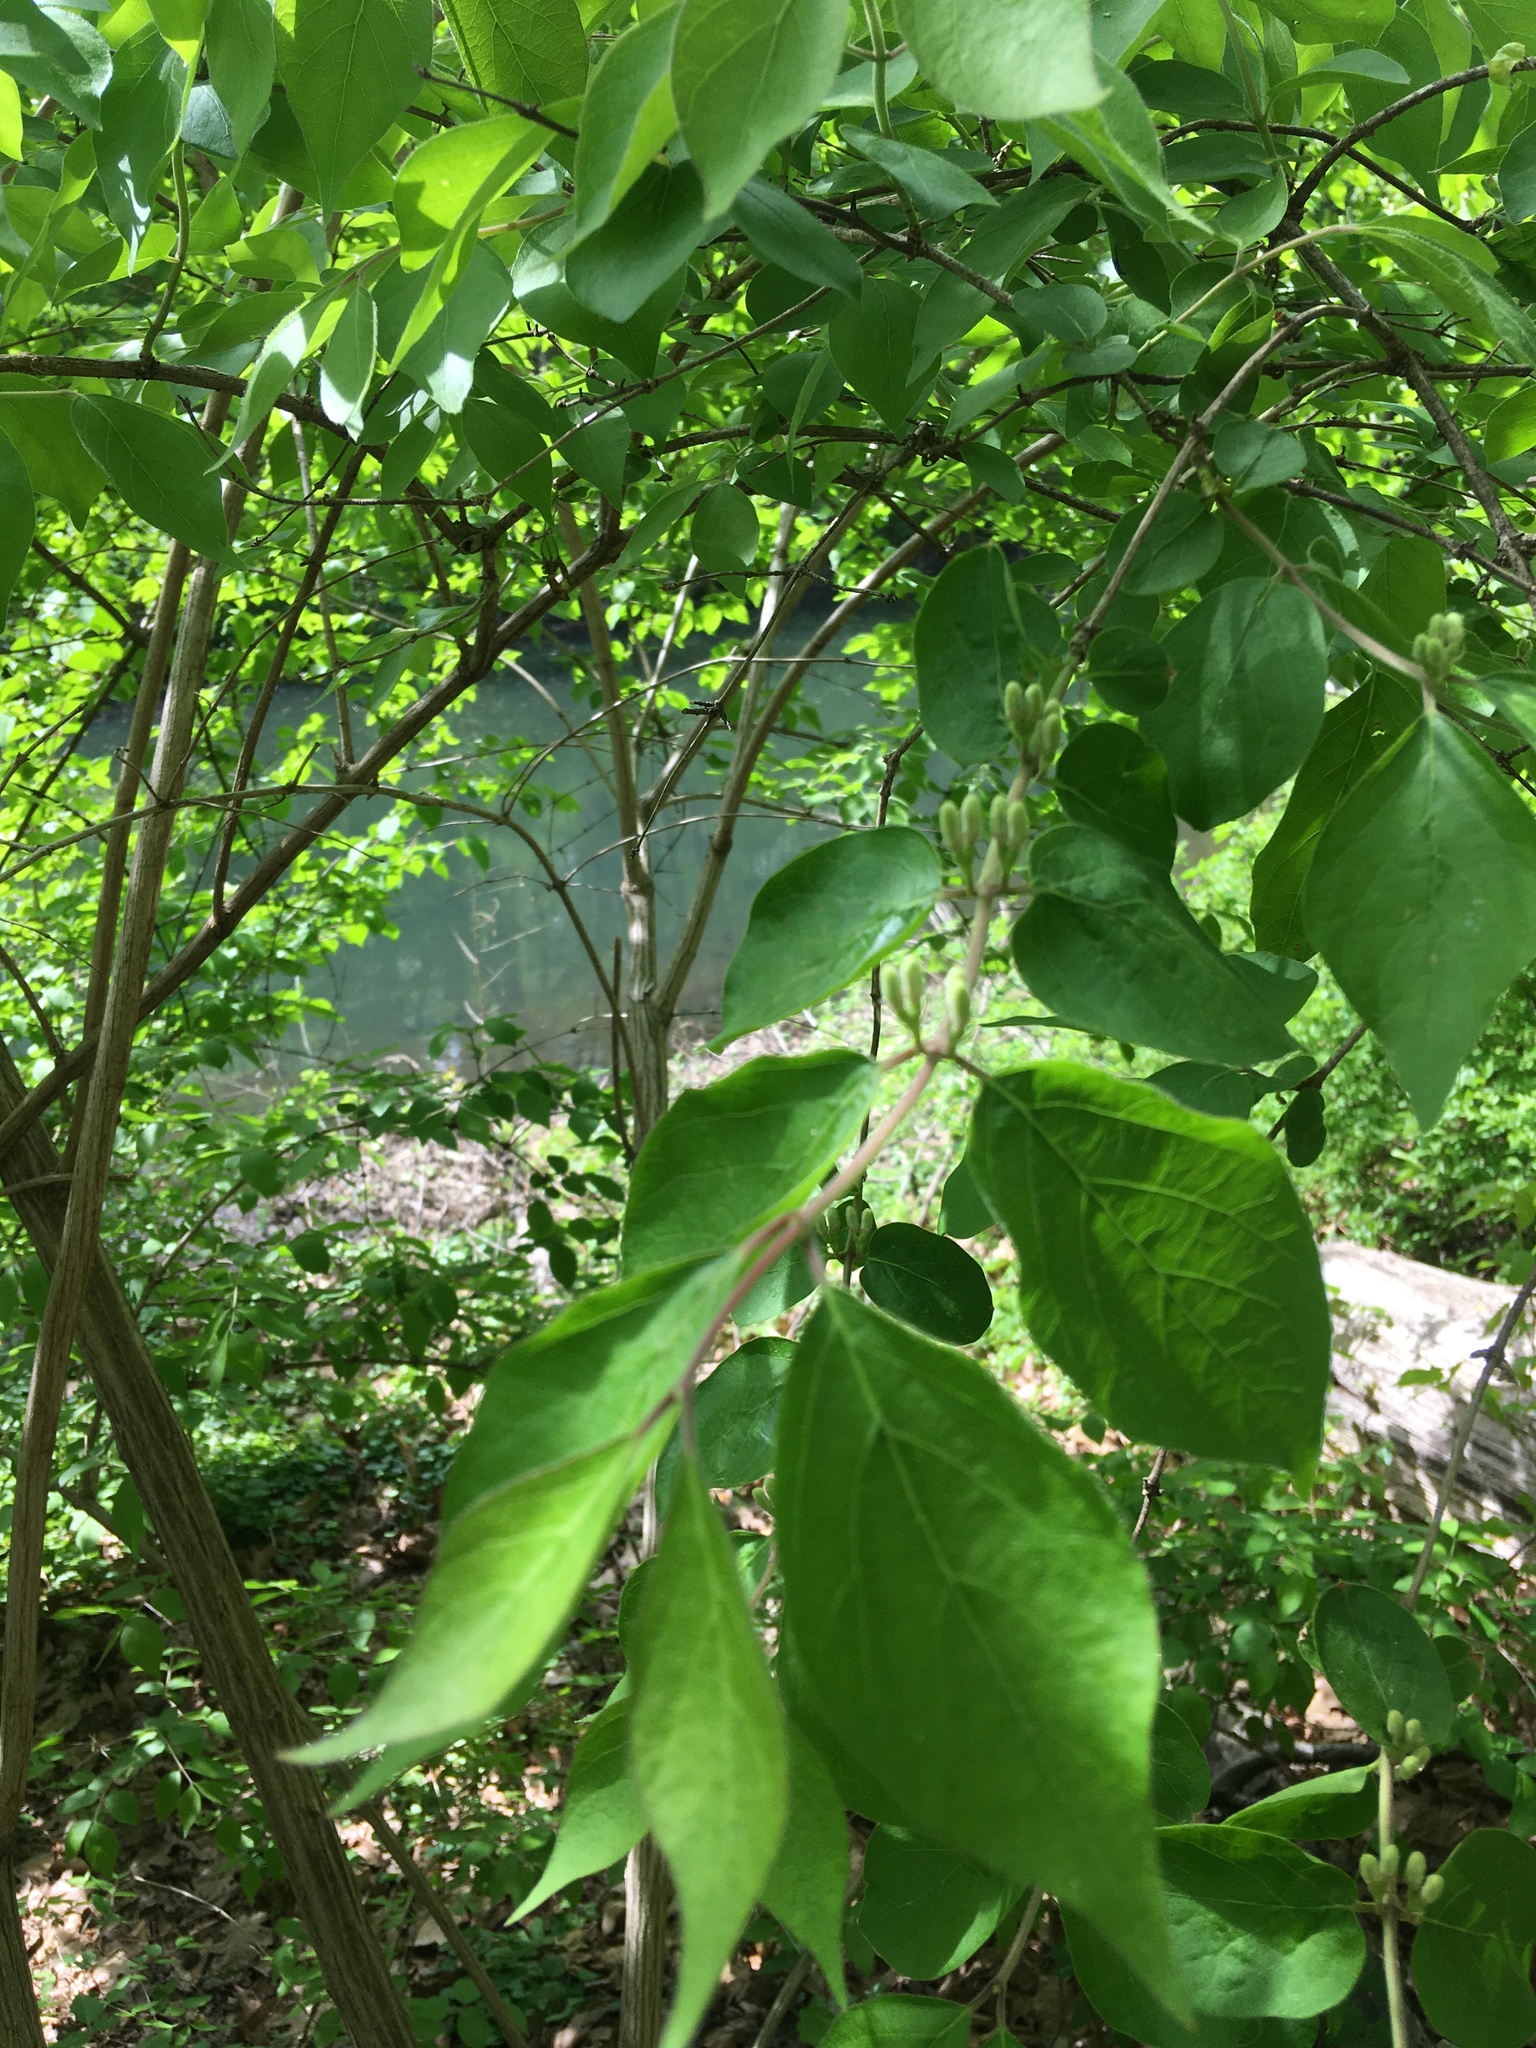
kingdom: Plantae
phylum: Tracheophyta
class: Magnoliopsida
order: Dipsacales
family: Caprifoliaceae
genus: Lonicera
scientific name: Lonicera maackii
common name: Amur honeysuckle
